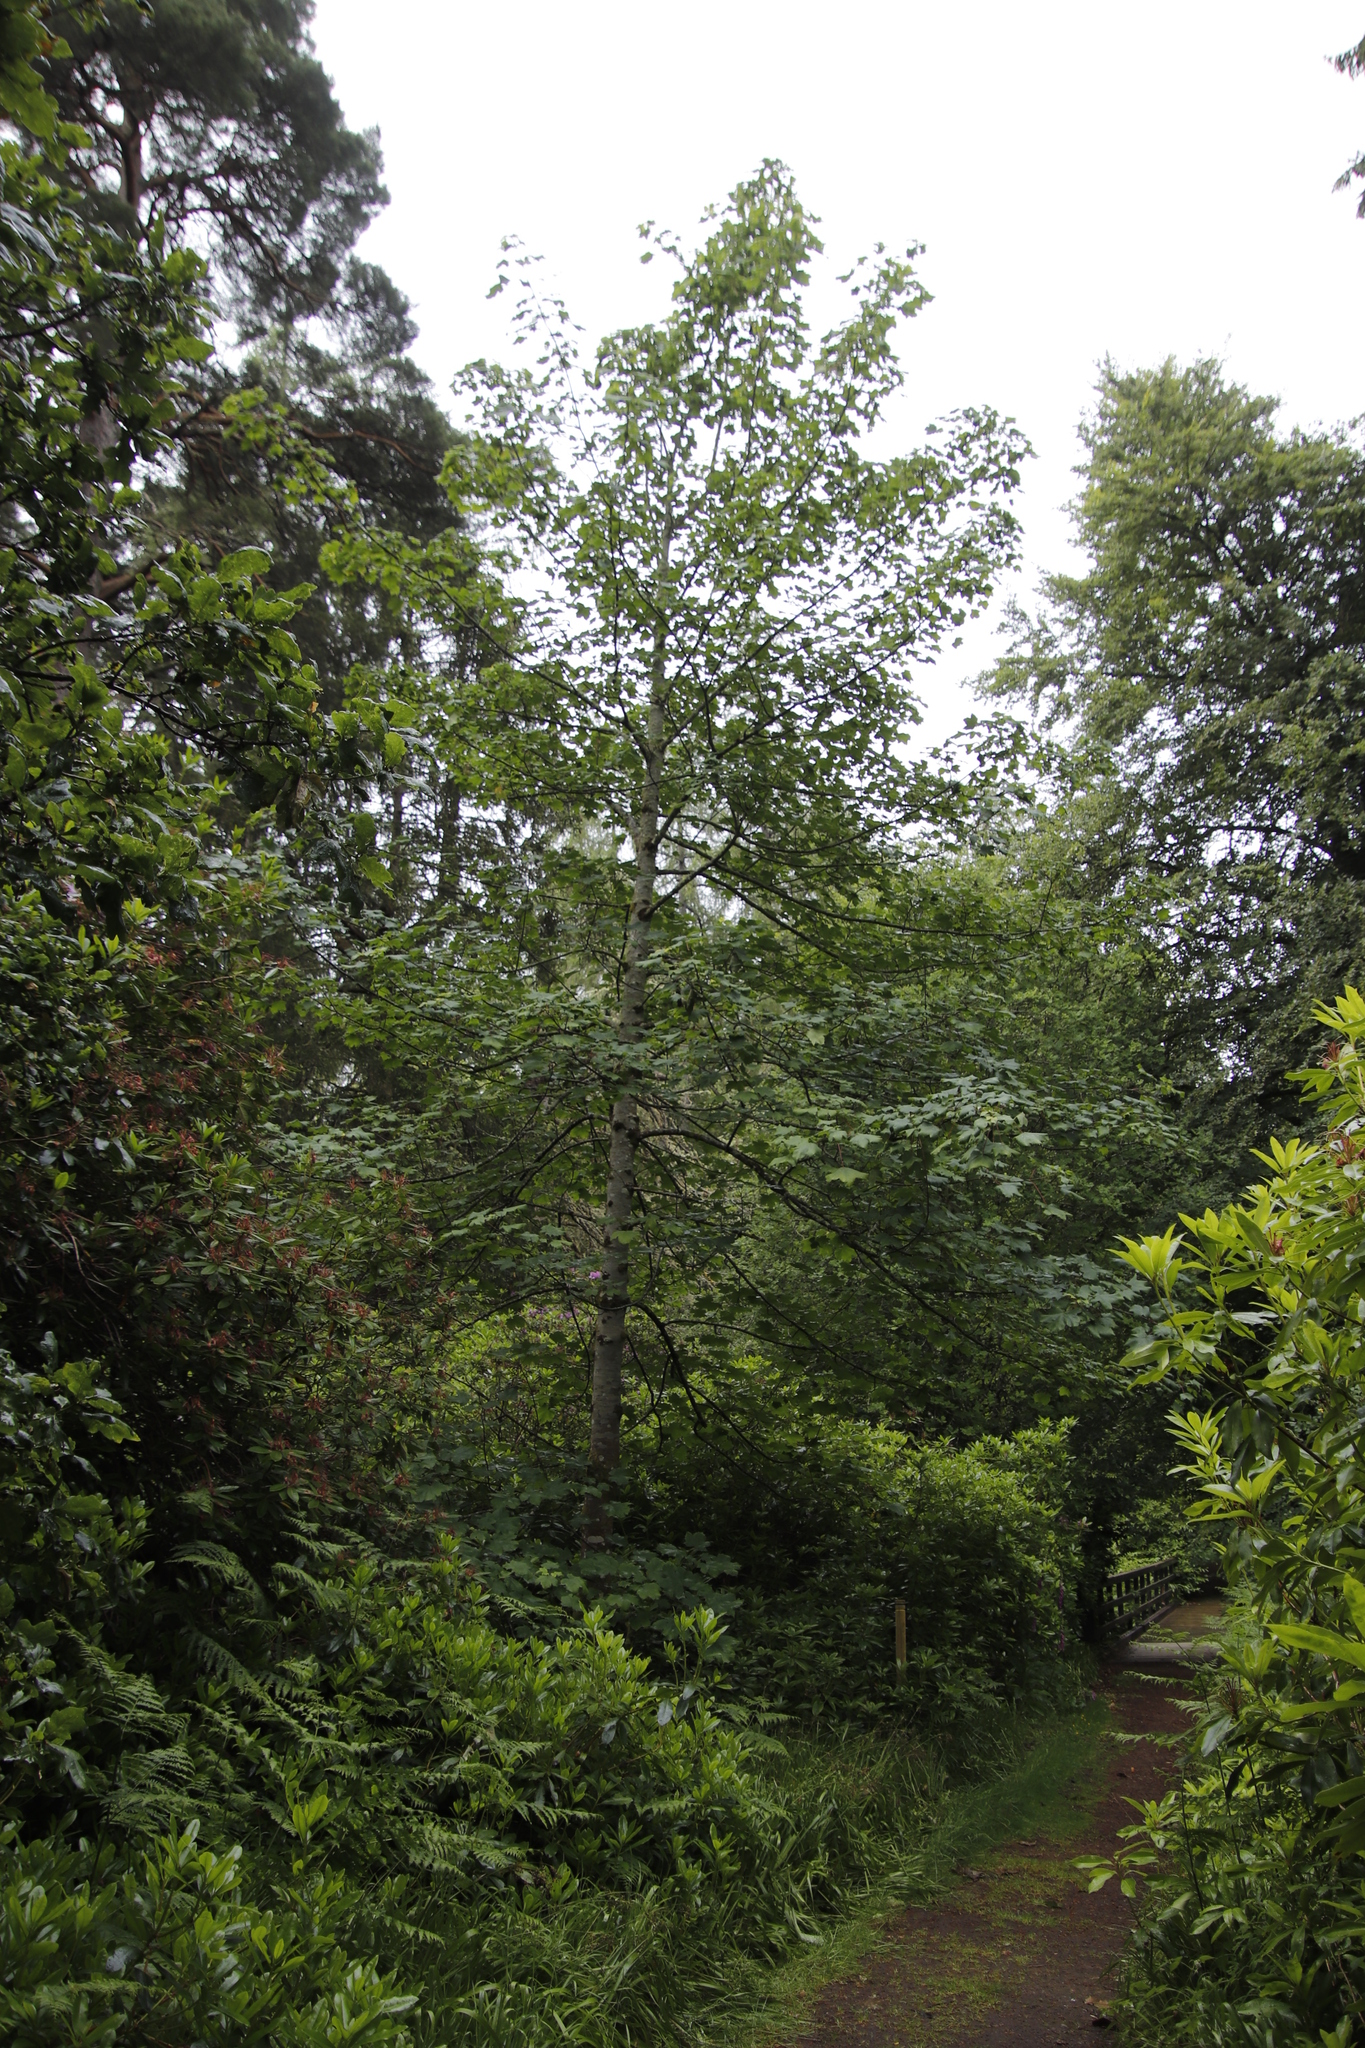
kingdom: Plantae
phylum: Tracheophyta
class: Magnoliopsida
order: Sapindales
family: Sapindaceae
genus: Acer
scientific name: Acer pseudoplatanus
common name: Sycamore
